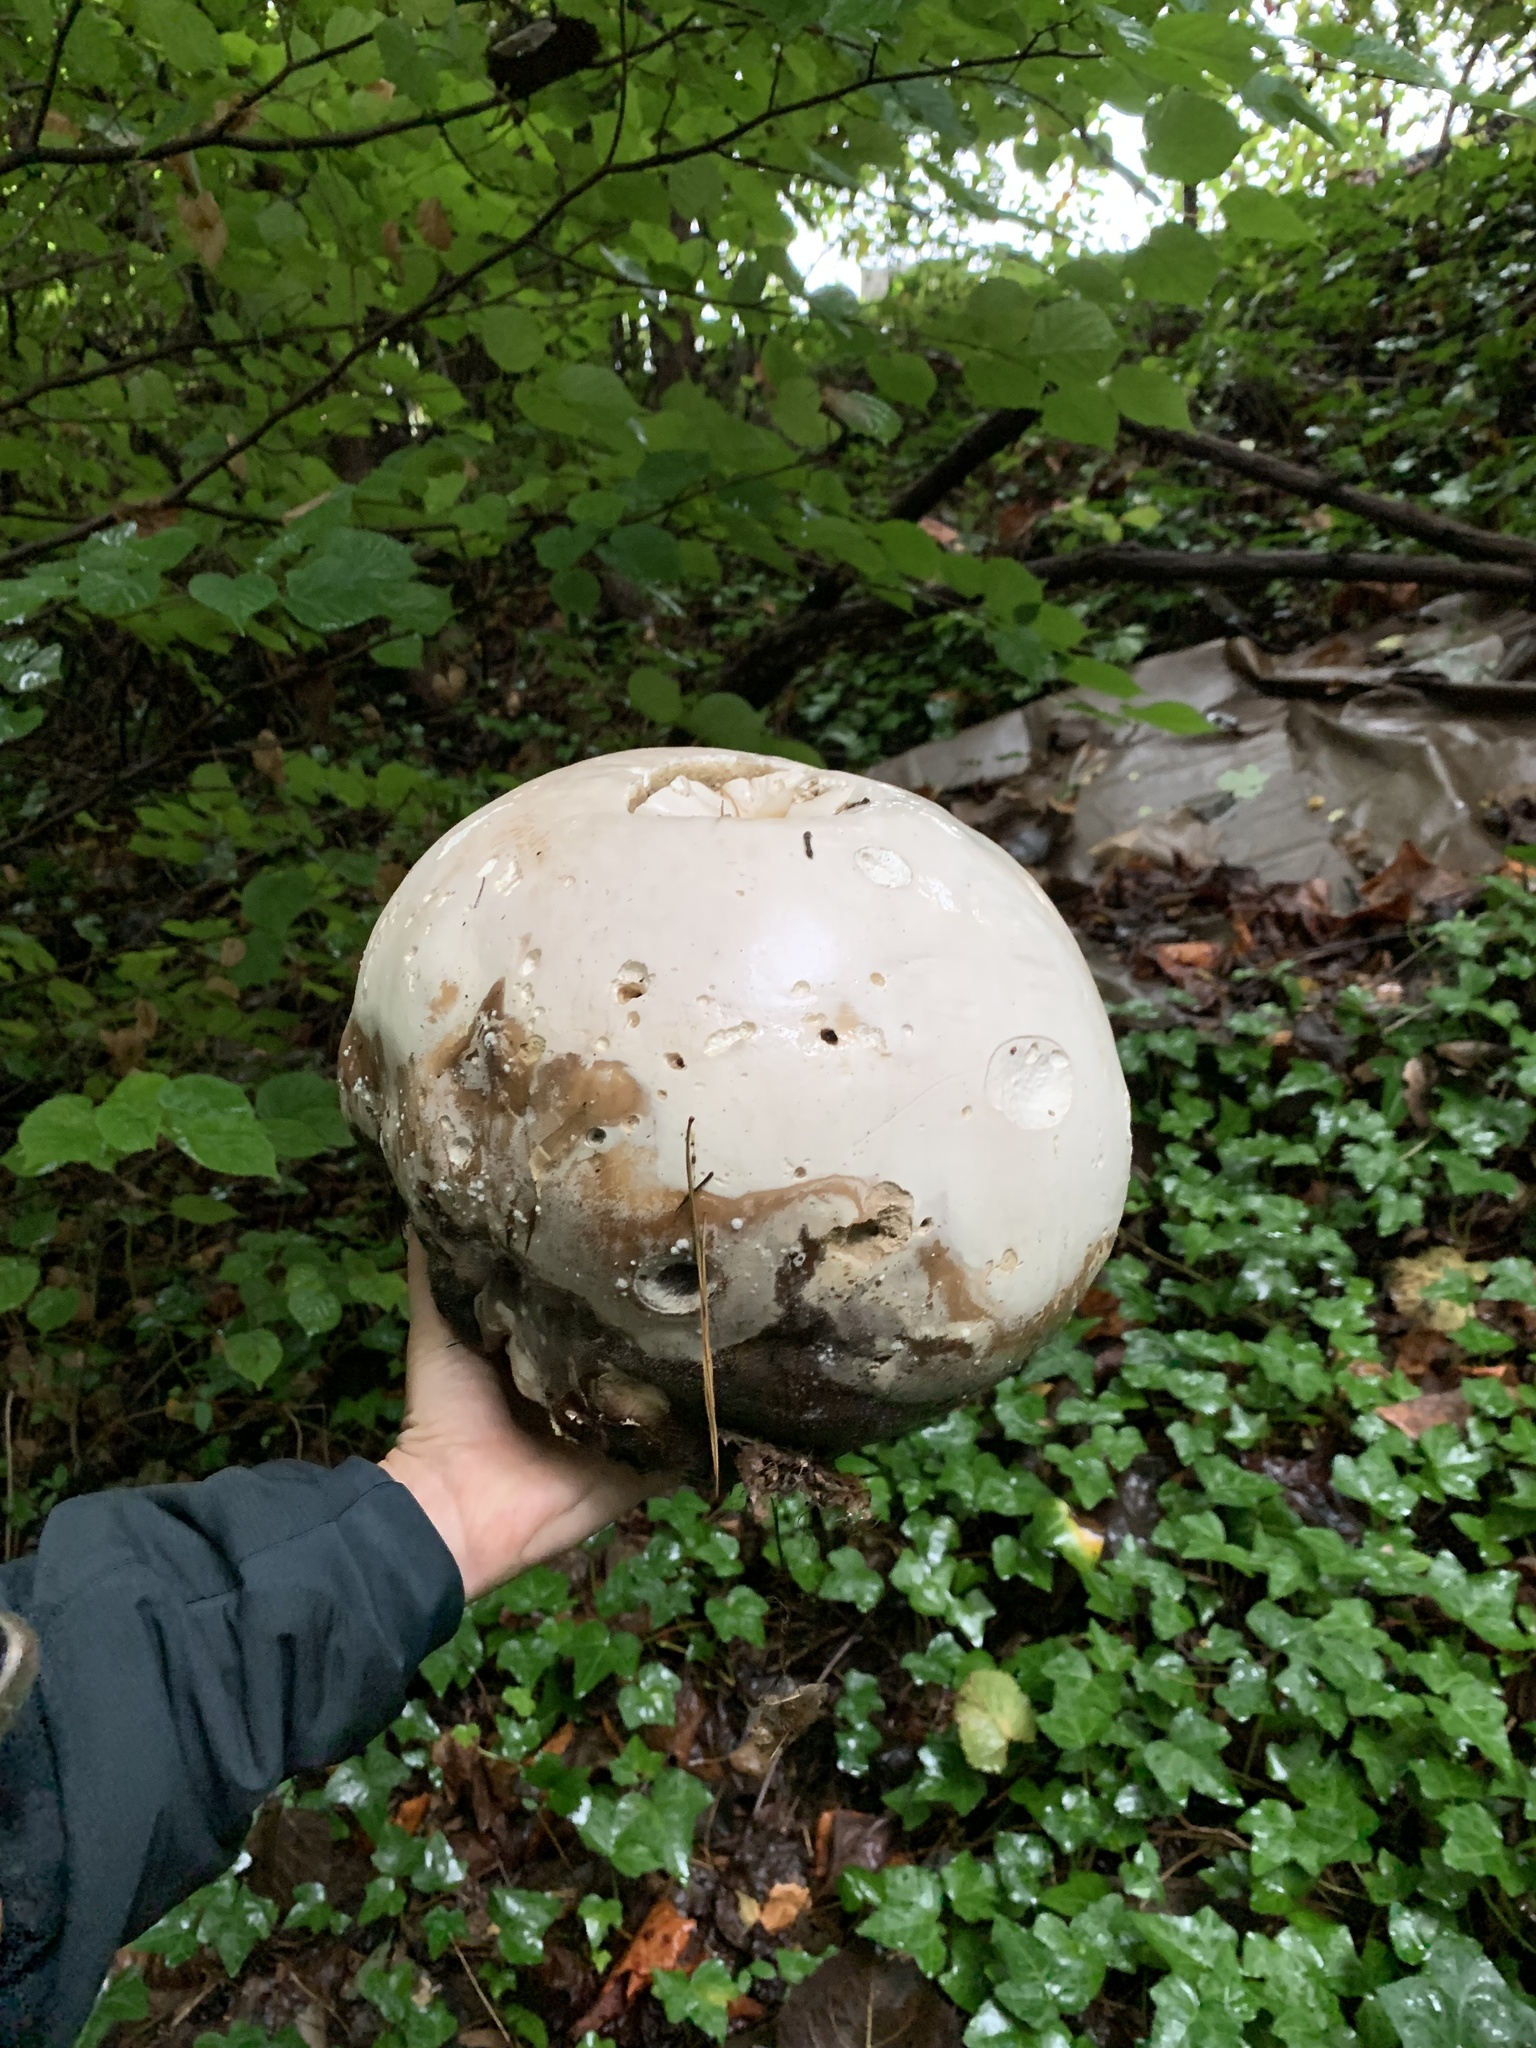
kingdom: Fungi
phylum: Basidiomycota
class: Agaricomycetes
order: Agaricales
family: Lycoperdaceae
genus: Calvatia
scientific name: Calvatia gigantea
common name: Giant puffball
